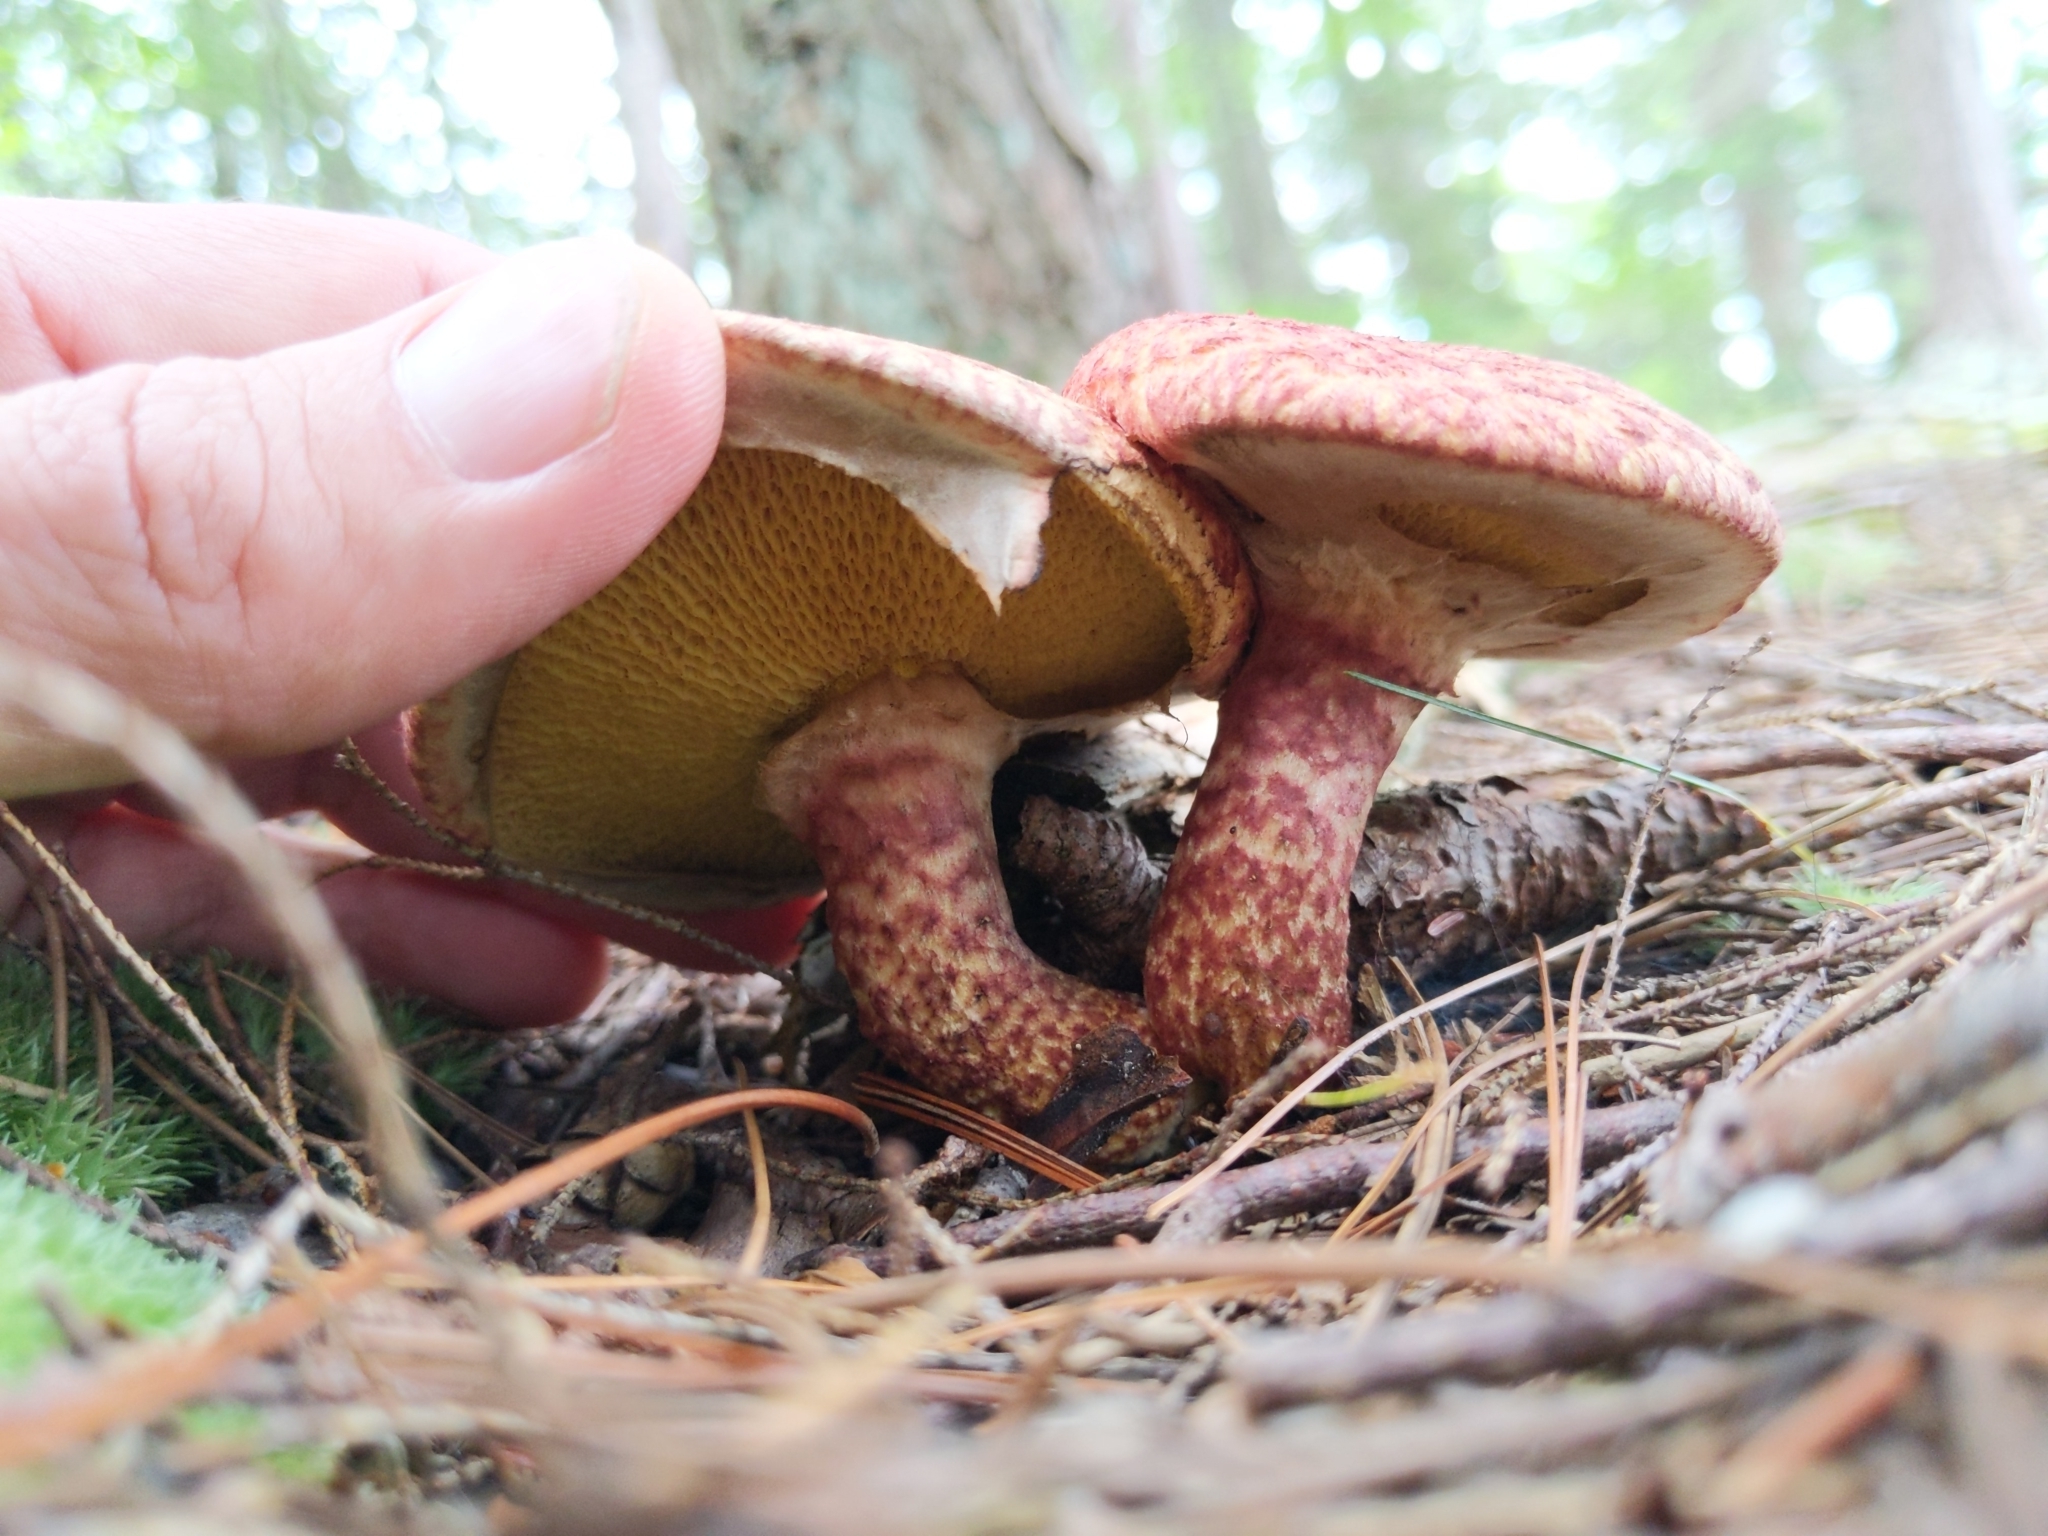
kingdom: Fungi
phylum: Basidiomycota
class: Agaricomycetes
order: Boletales
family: Suillaceae
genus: Suillus
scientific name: Suillus spraguei
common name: Painted suillus
